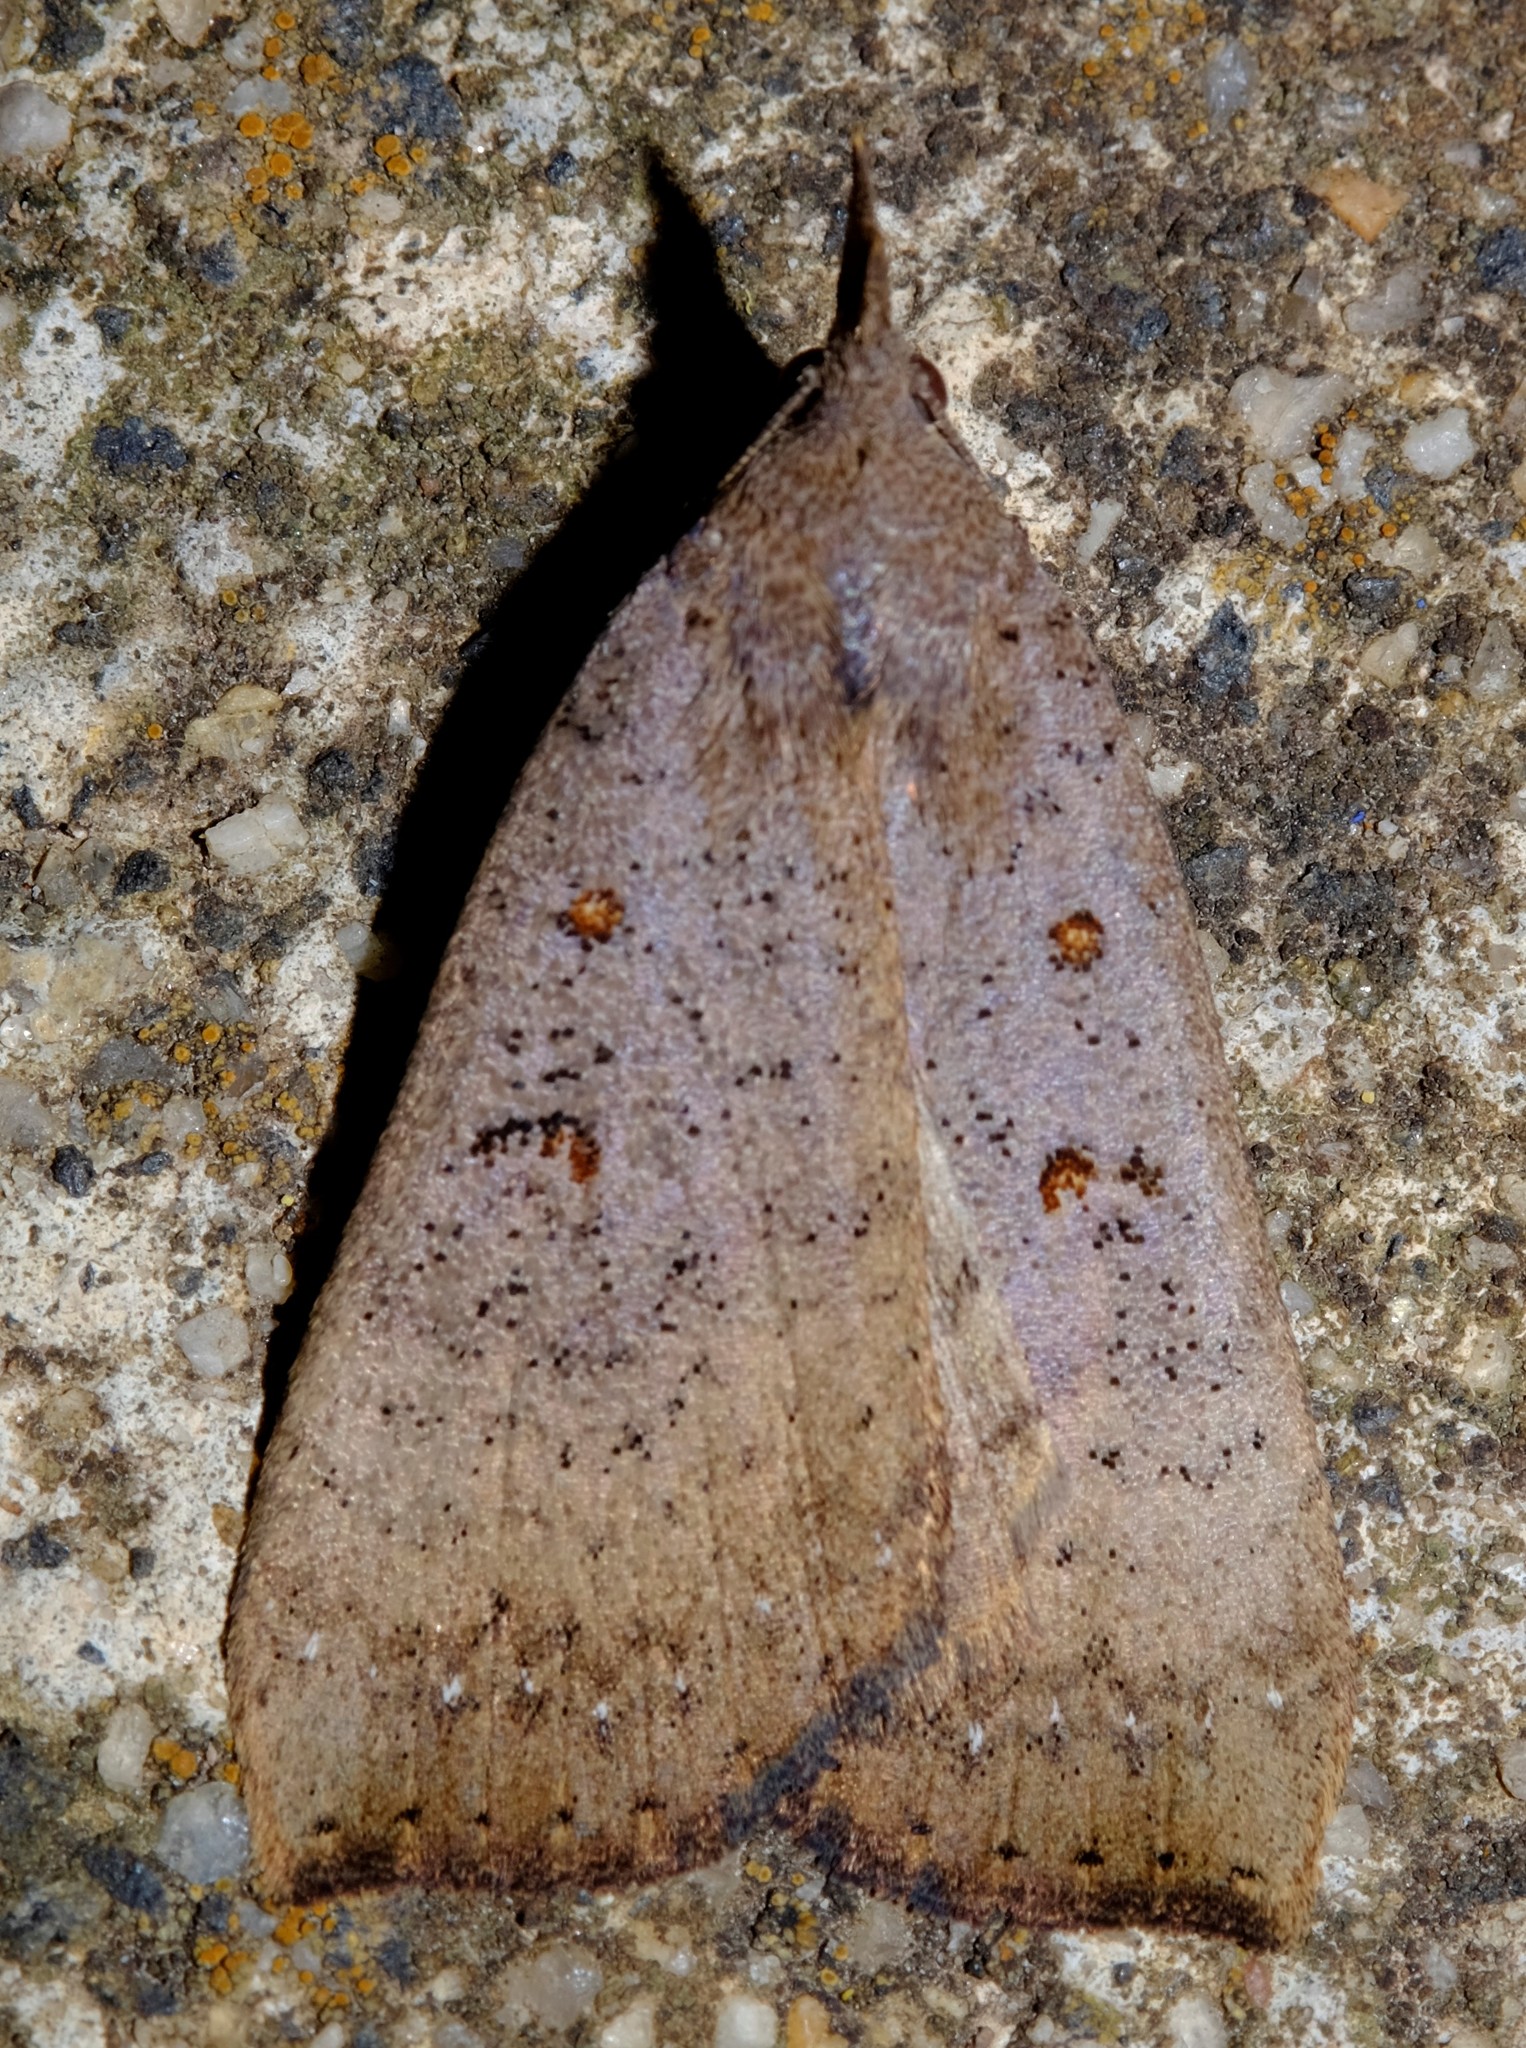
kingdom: Animalia
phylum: Arthropoda
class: Insecta
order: Lepidoptera
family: Erebidae
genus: Rhapsa
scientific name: Rhapsa suscitatalis
